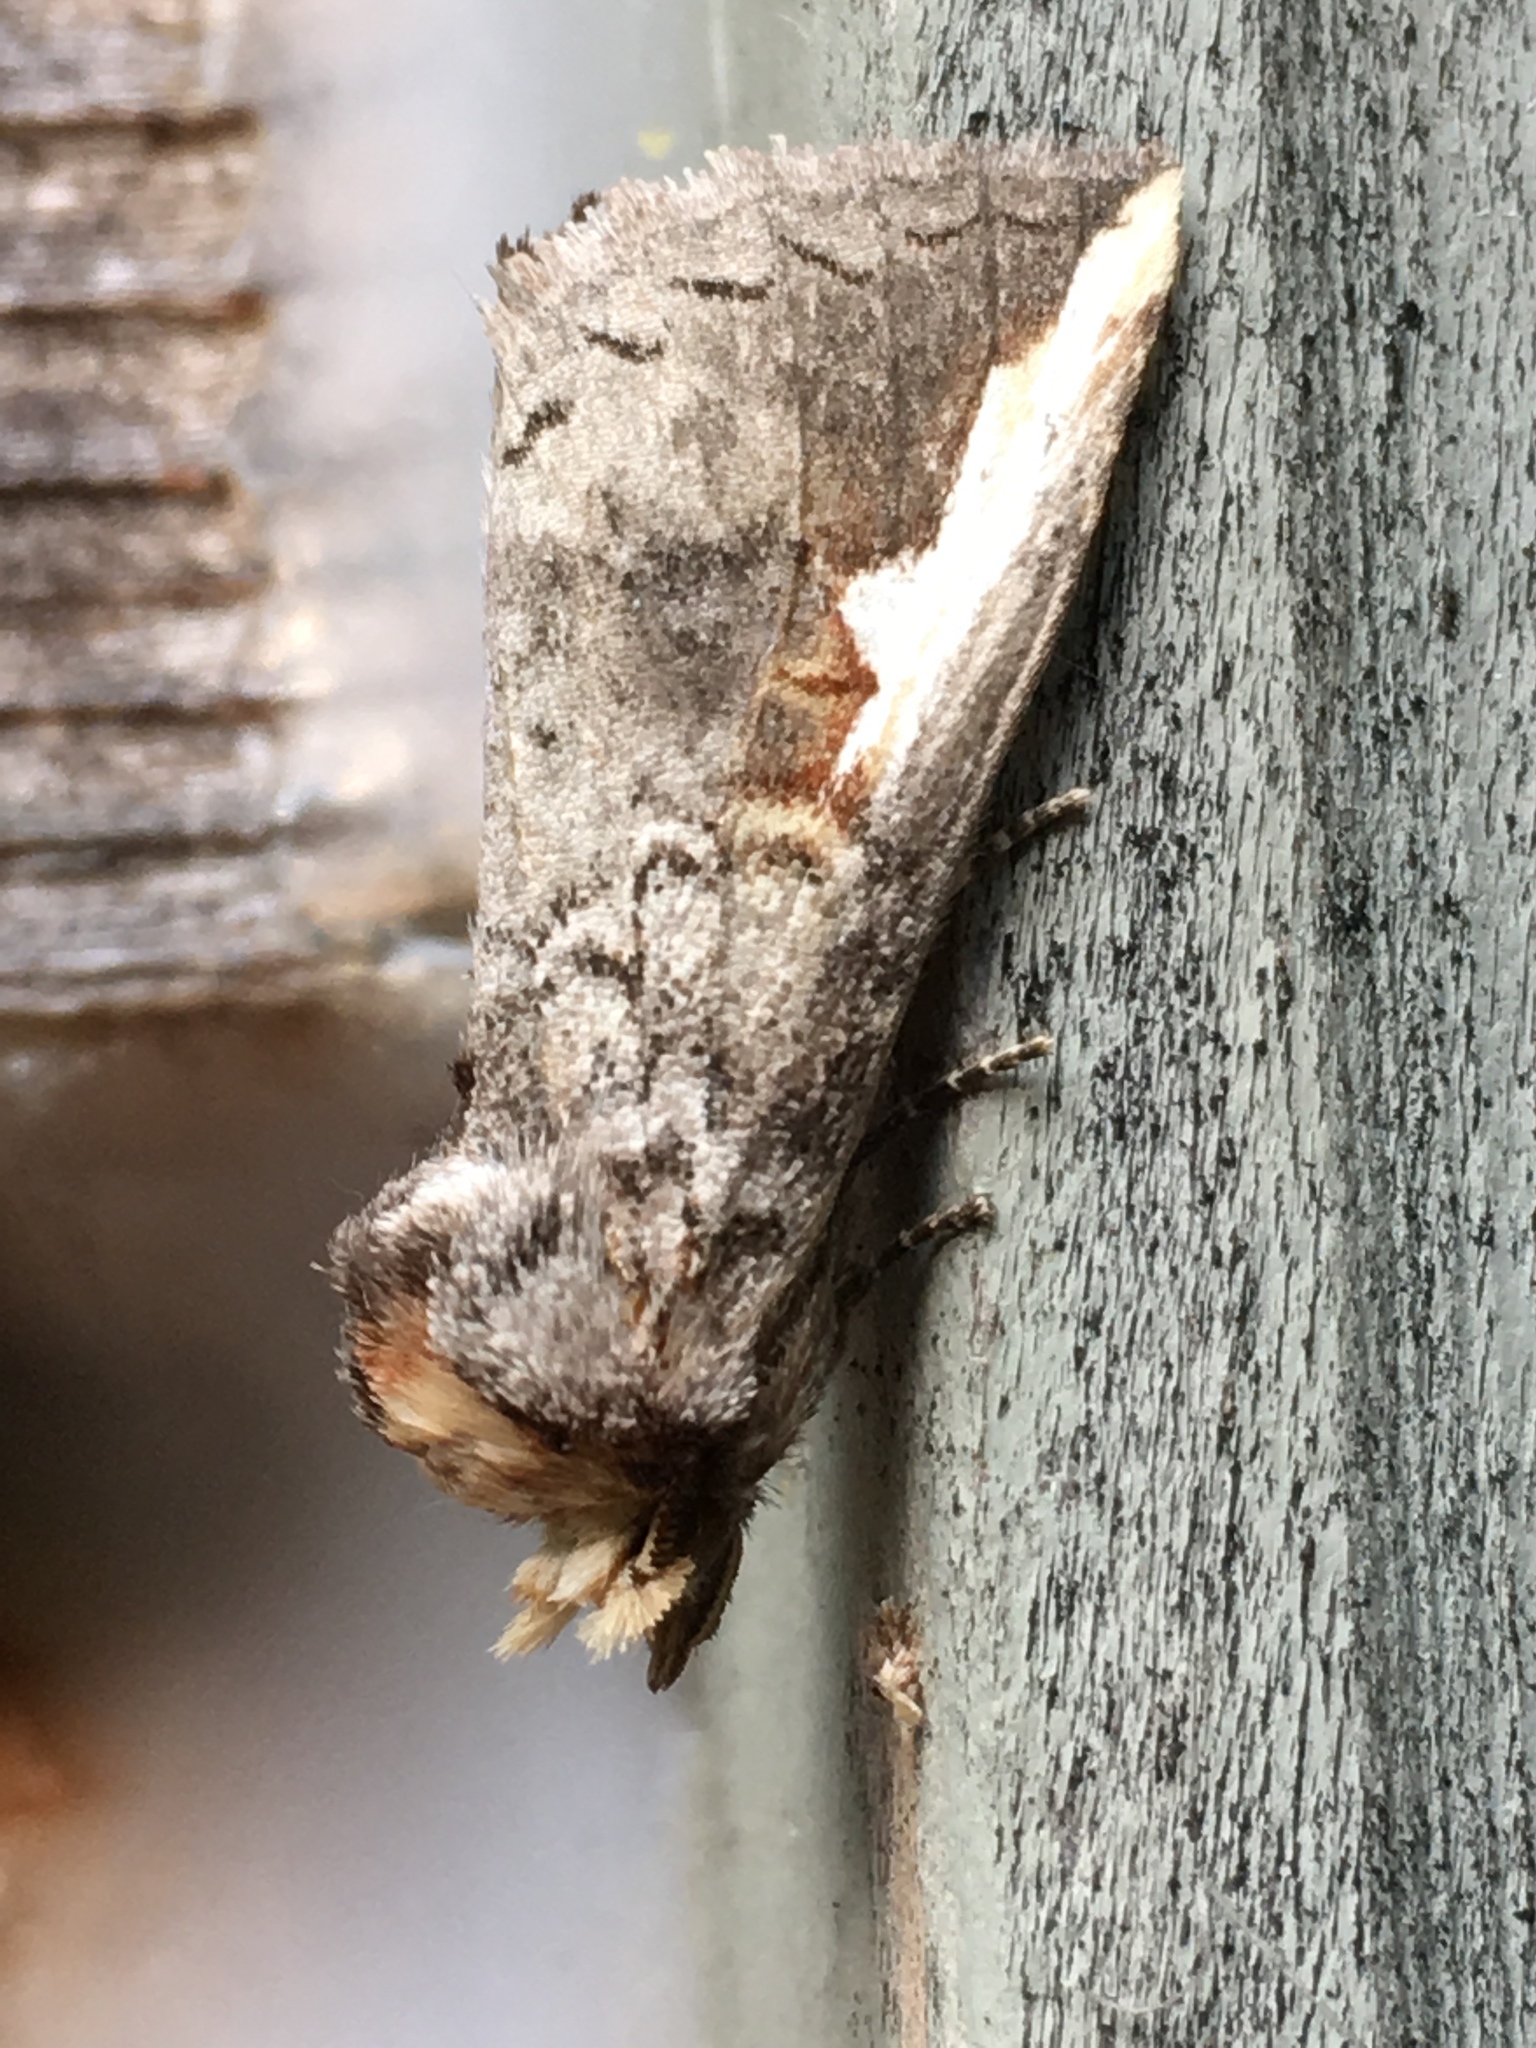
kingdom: Animalia
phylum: Arthropoda
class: Insecta
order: Lepidoptera
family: Notodontidae
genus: Symmerista
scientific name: Symmerista
